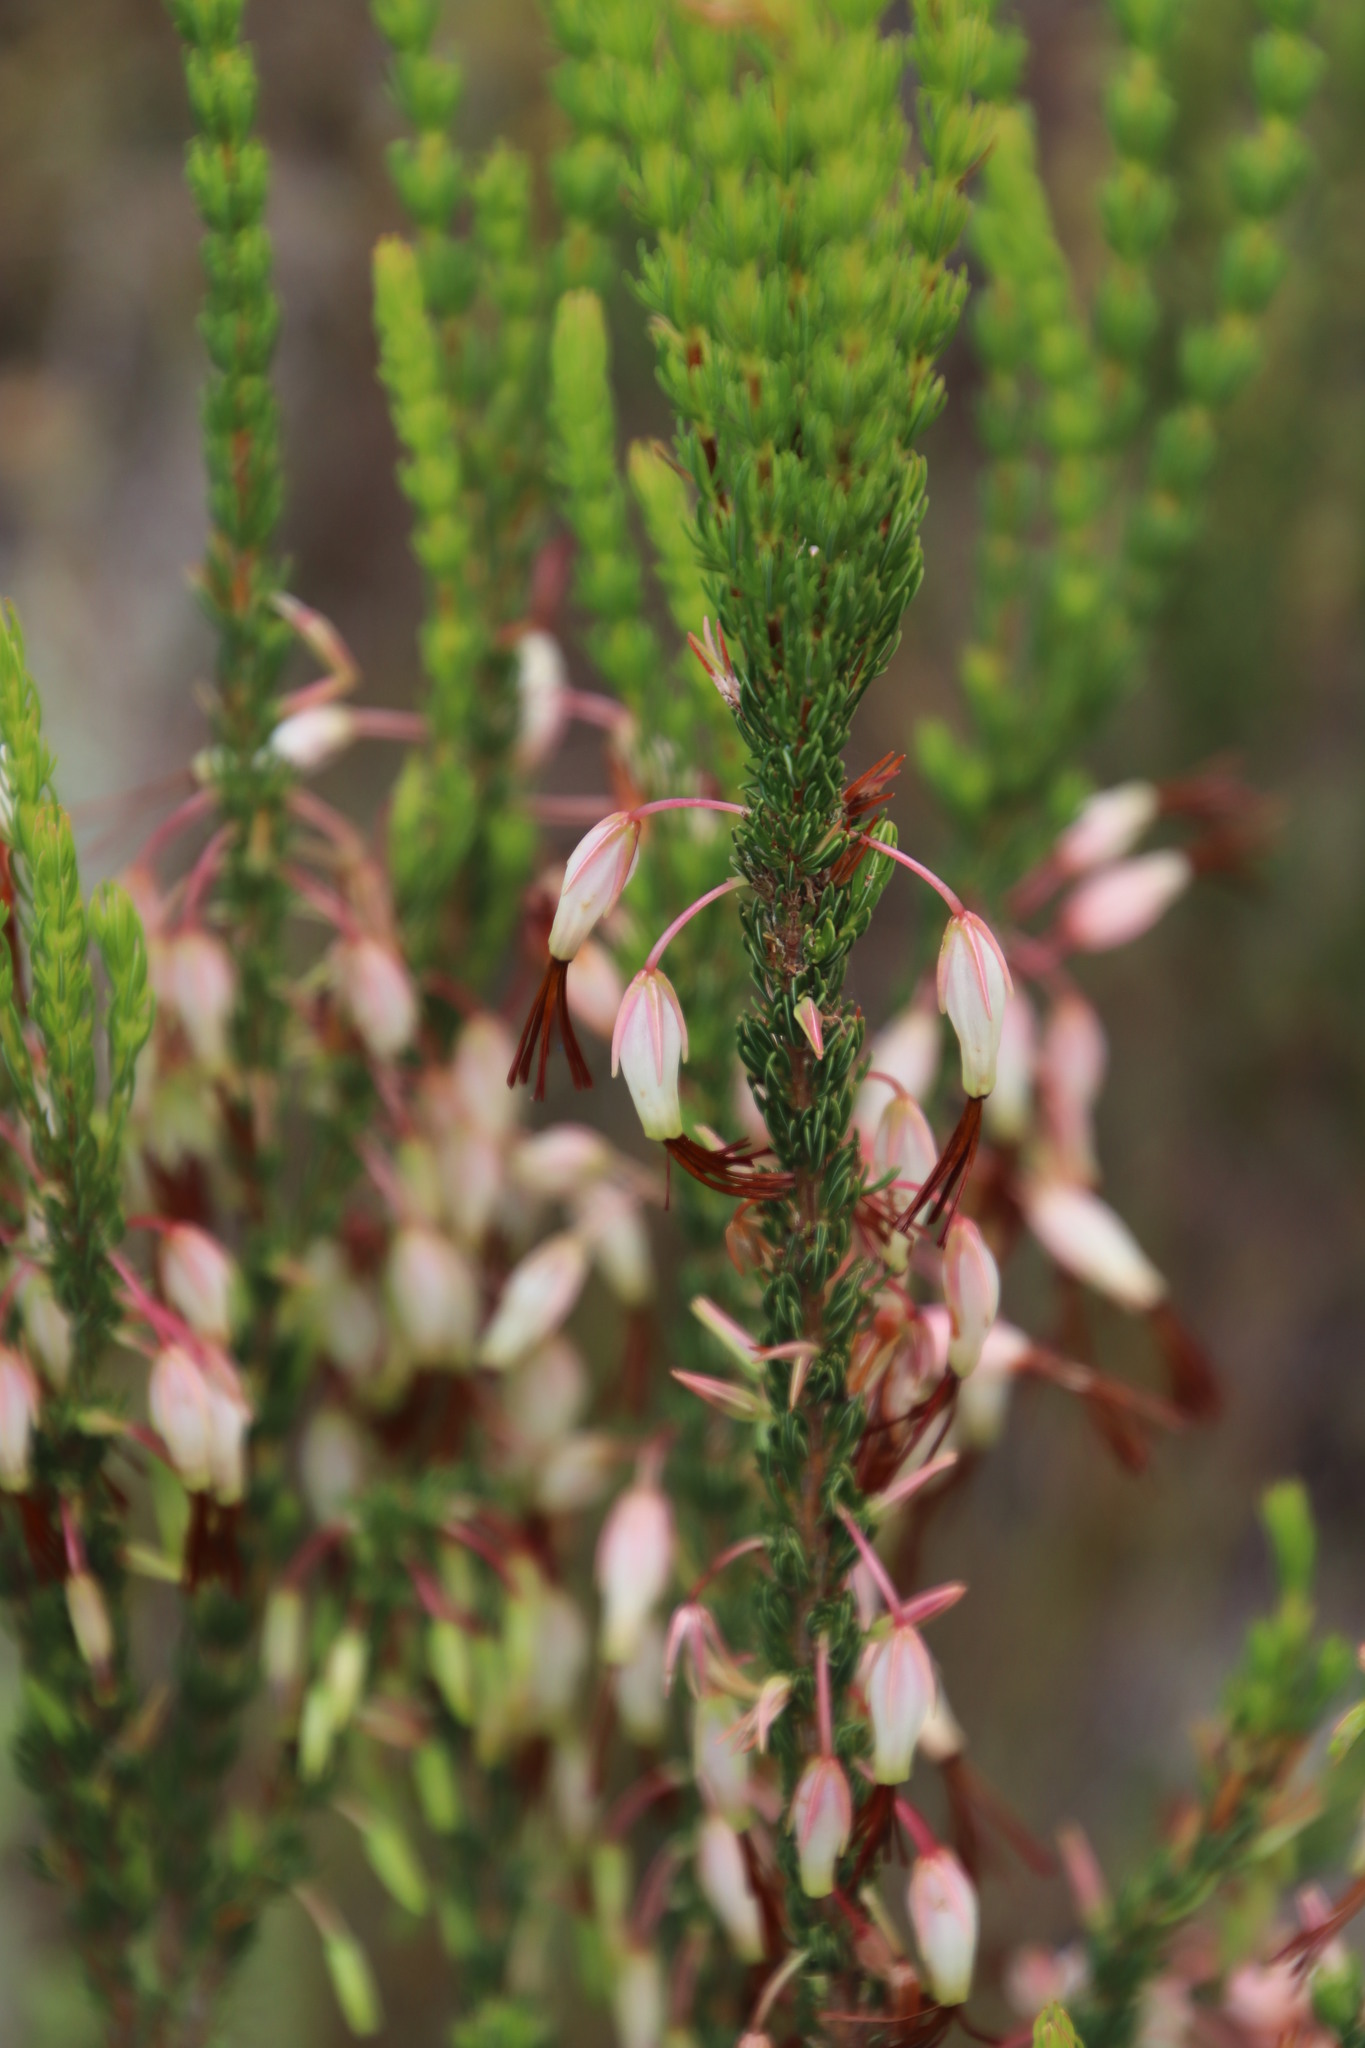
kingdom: Plantae
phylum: Tracheophyta
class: Magnoliopsida
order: Ericales
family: Ericaceae
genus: Erica
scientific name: Erica plukenetii
